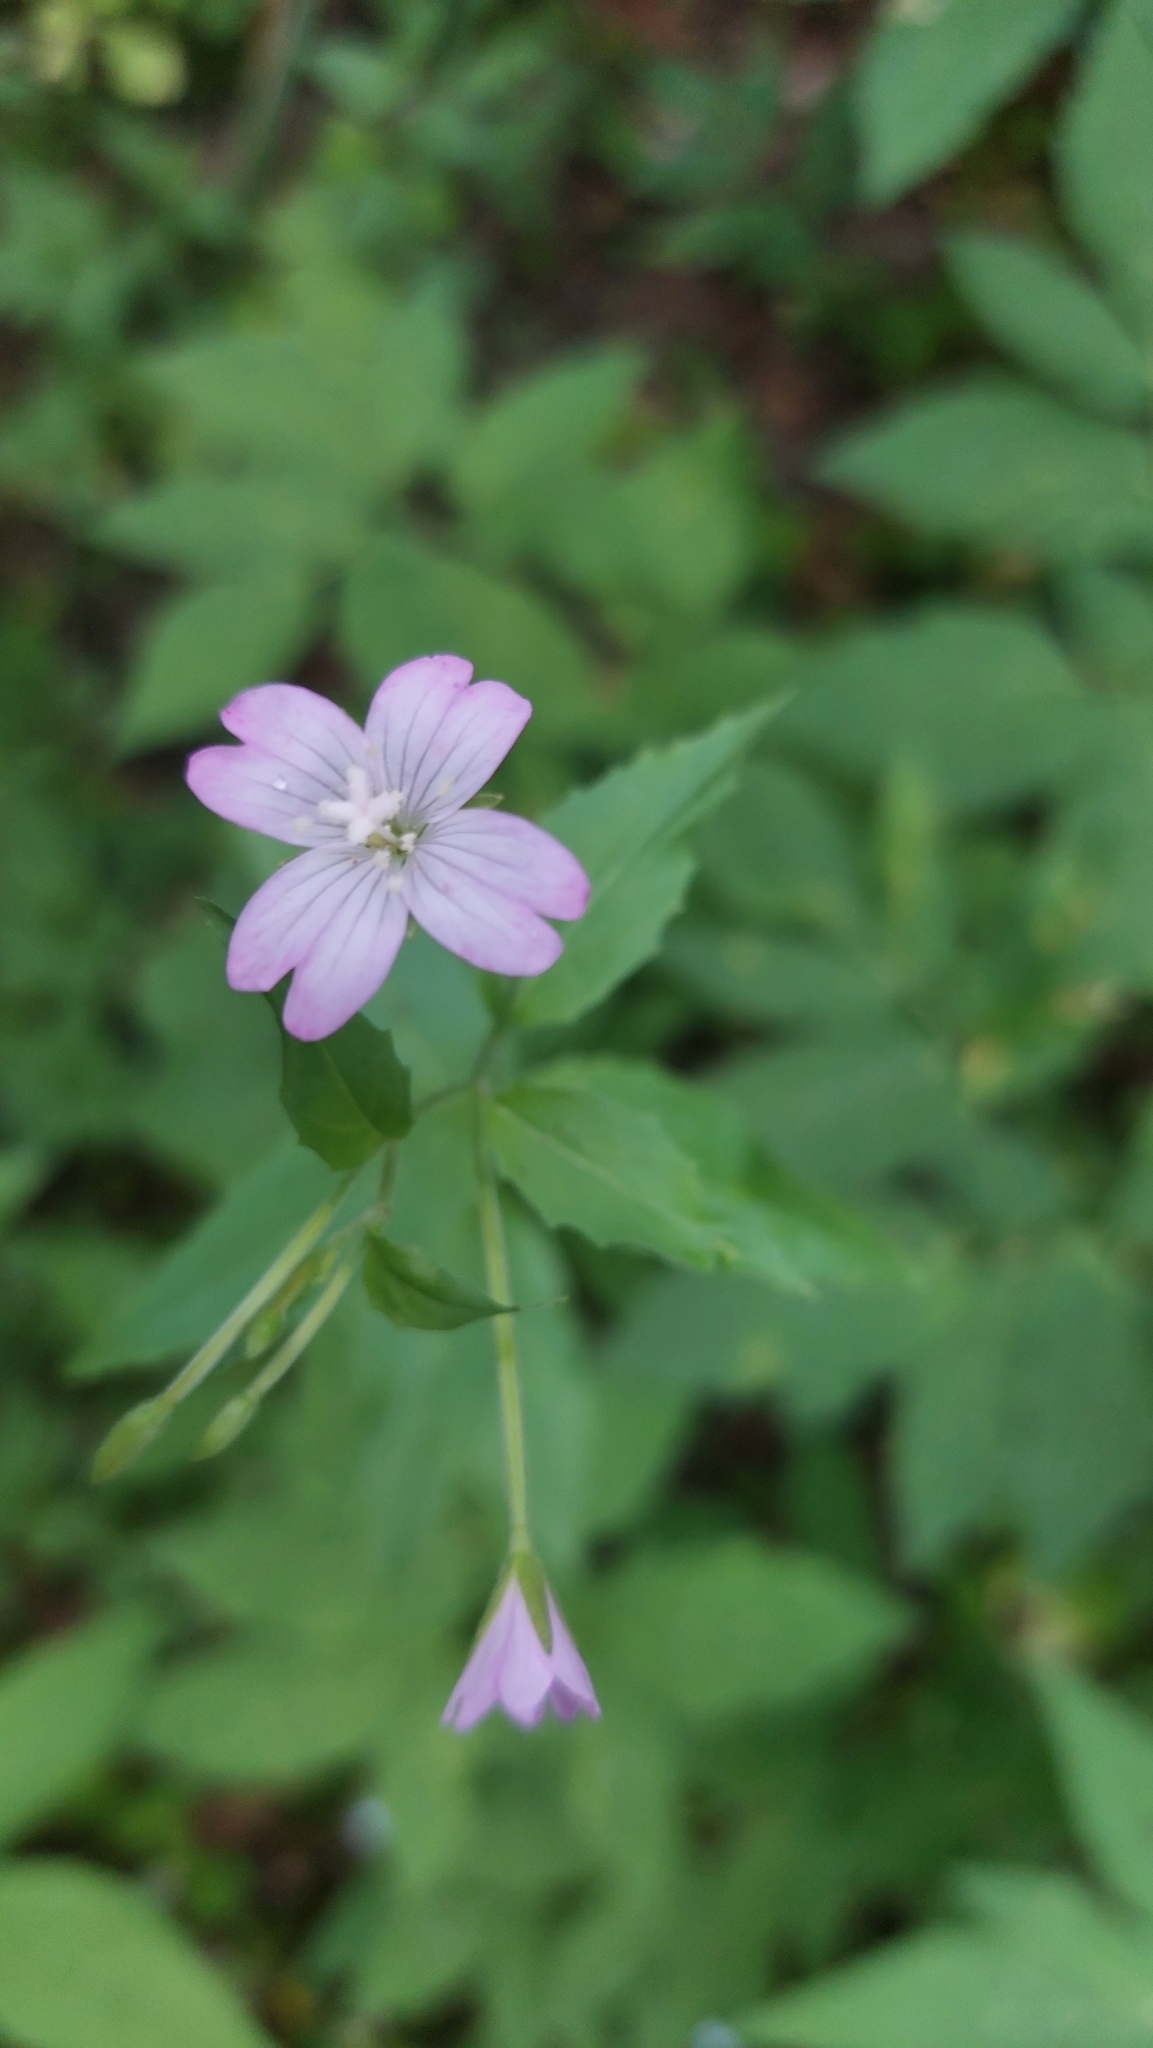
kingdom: Plantae
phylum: Tracheophyta
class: Magnoliopsida
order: Myrtales
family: Onagraceae
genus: Epilobium
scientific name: Epilobium montanum
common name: Broad-leaved willowherb
